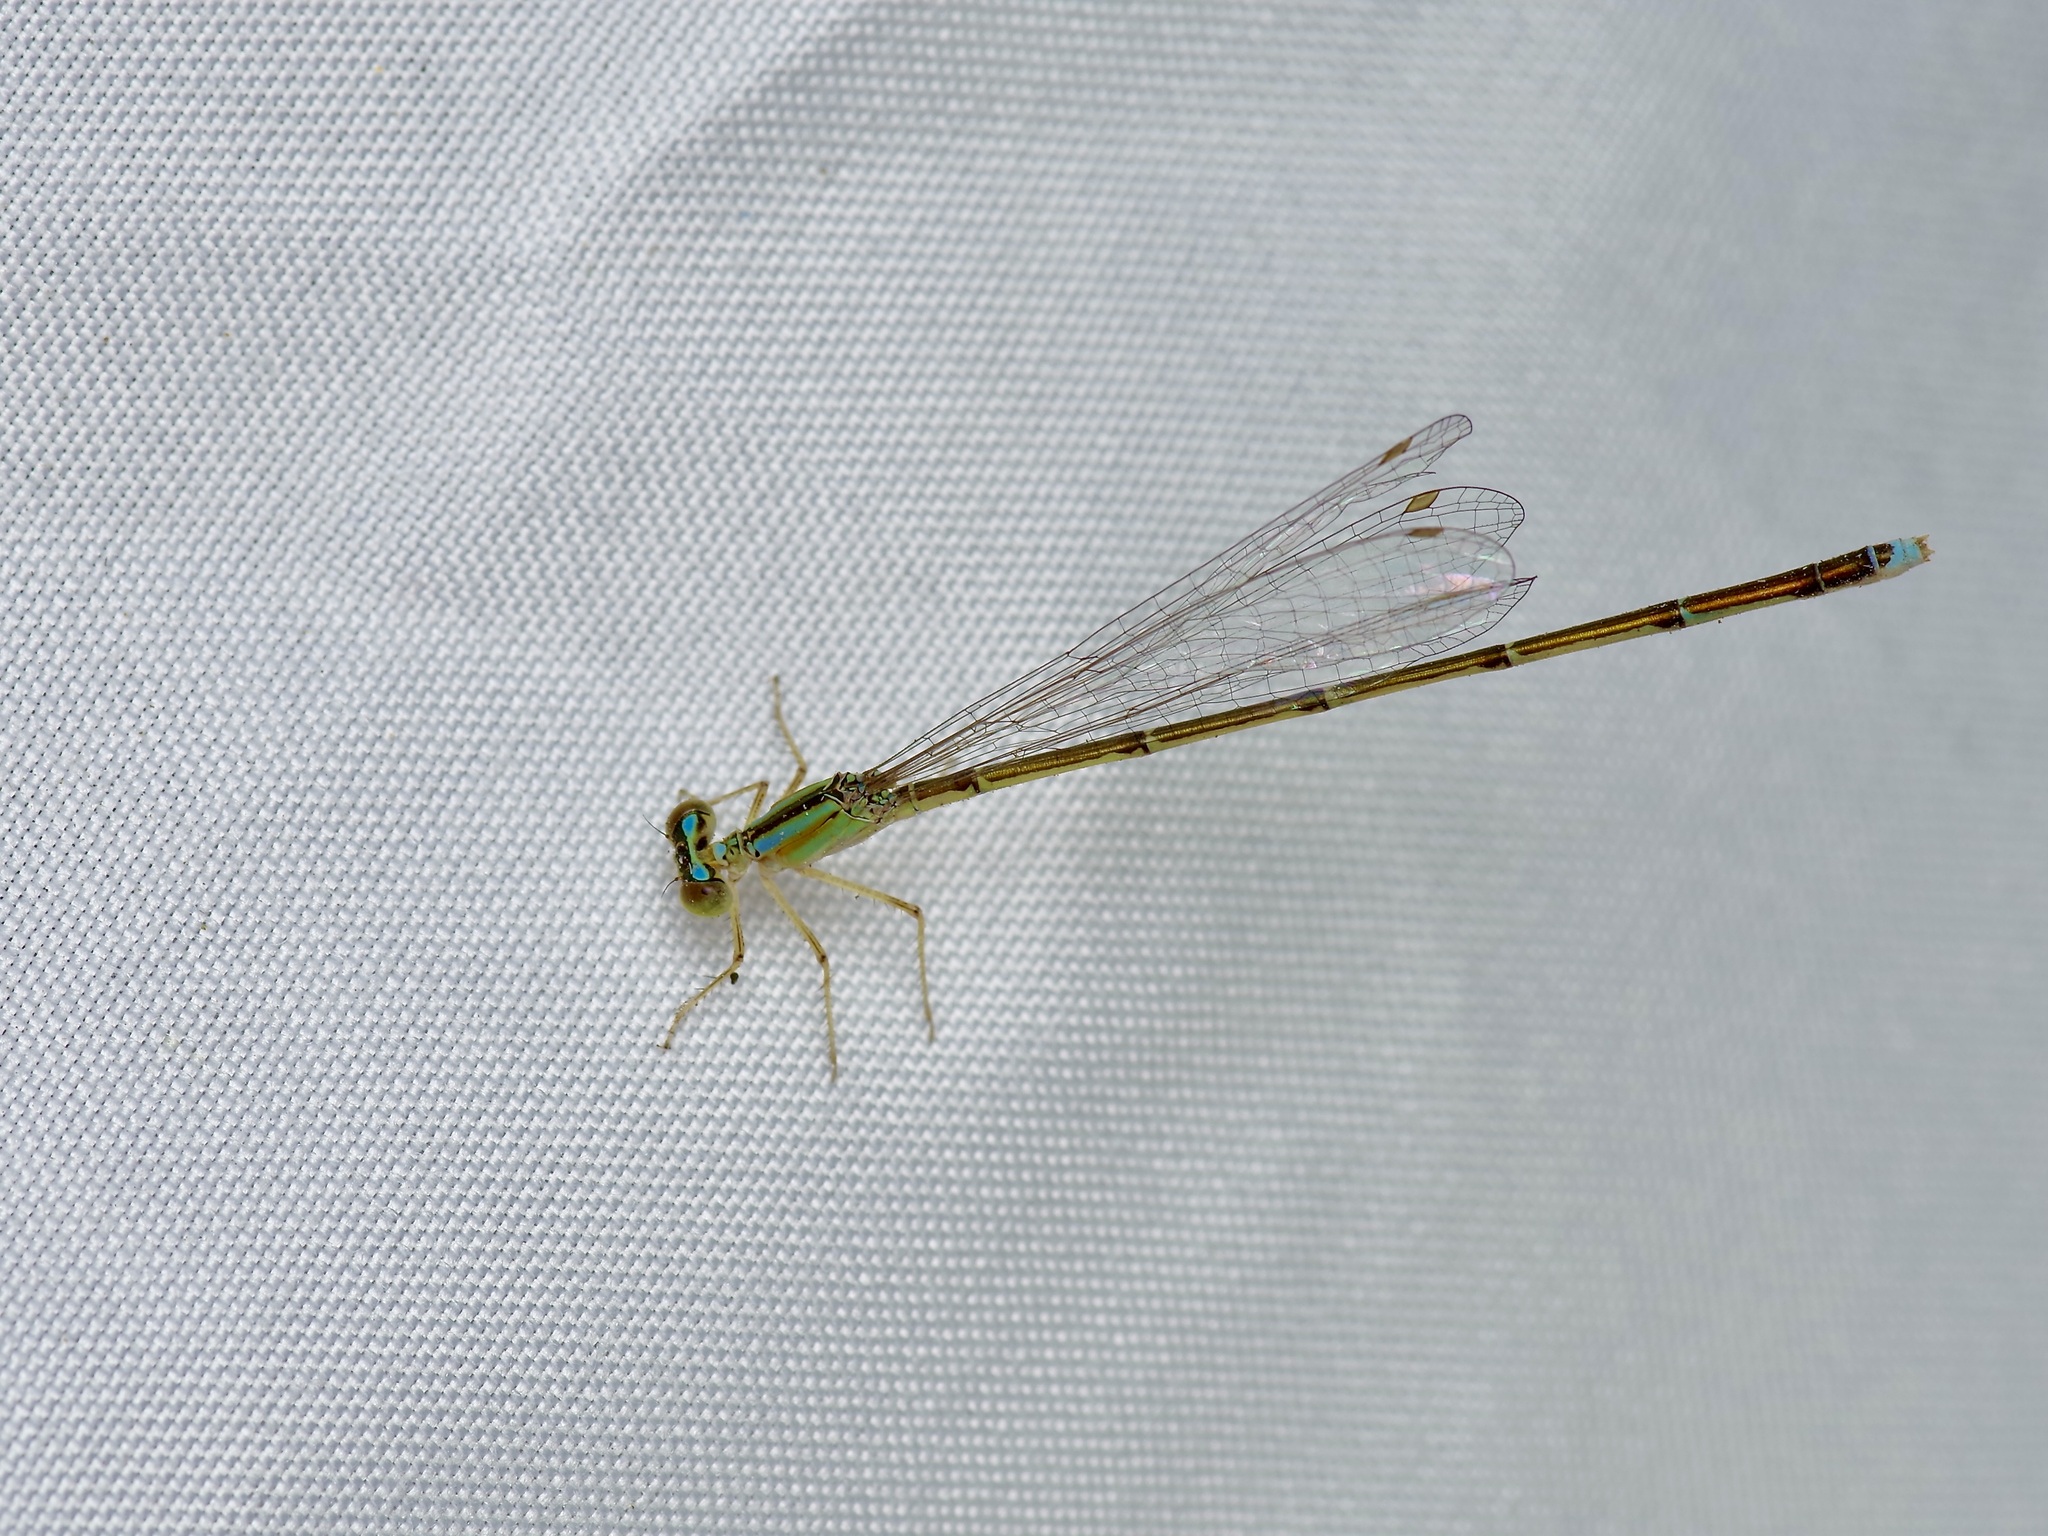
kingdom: Animalia
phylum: Arthropoda
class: Insecta
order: Odonata
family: Coenagrionidae
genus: Enallagma
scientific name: Enallagma vesperum
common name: Vesper bluet
